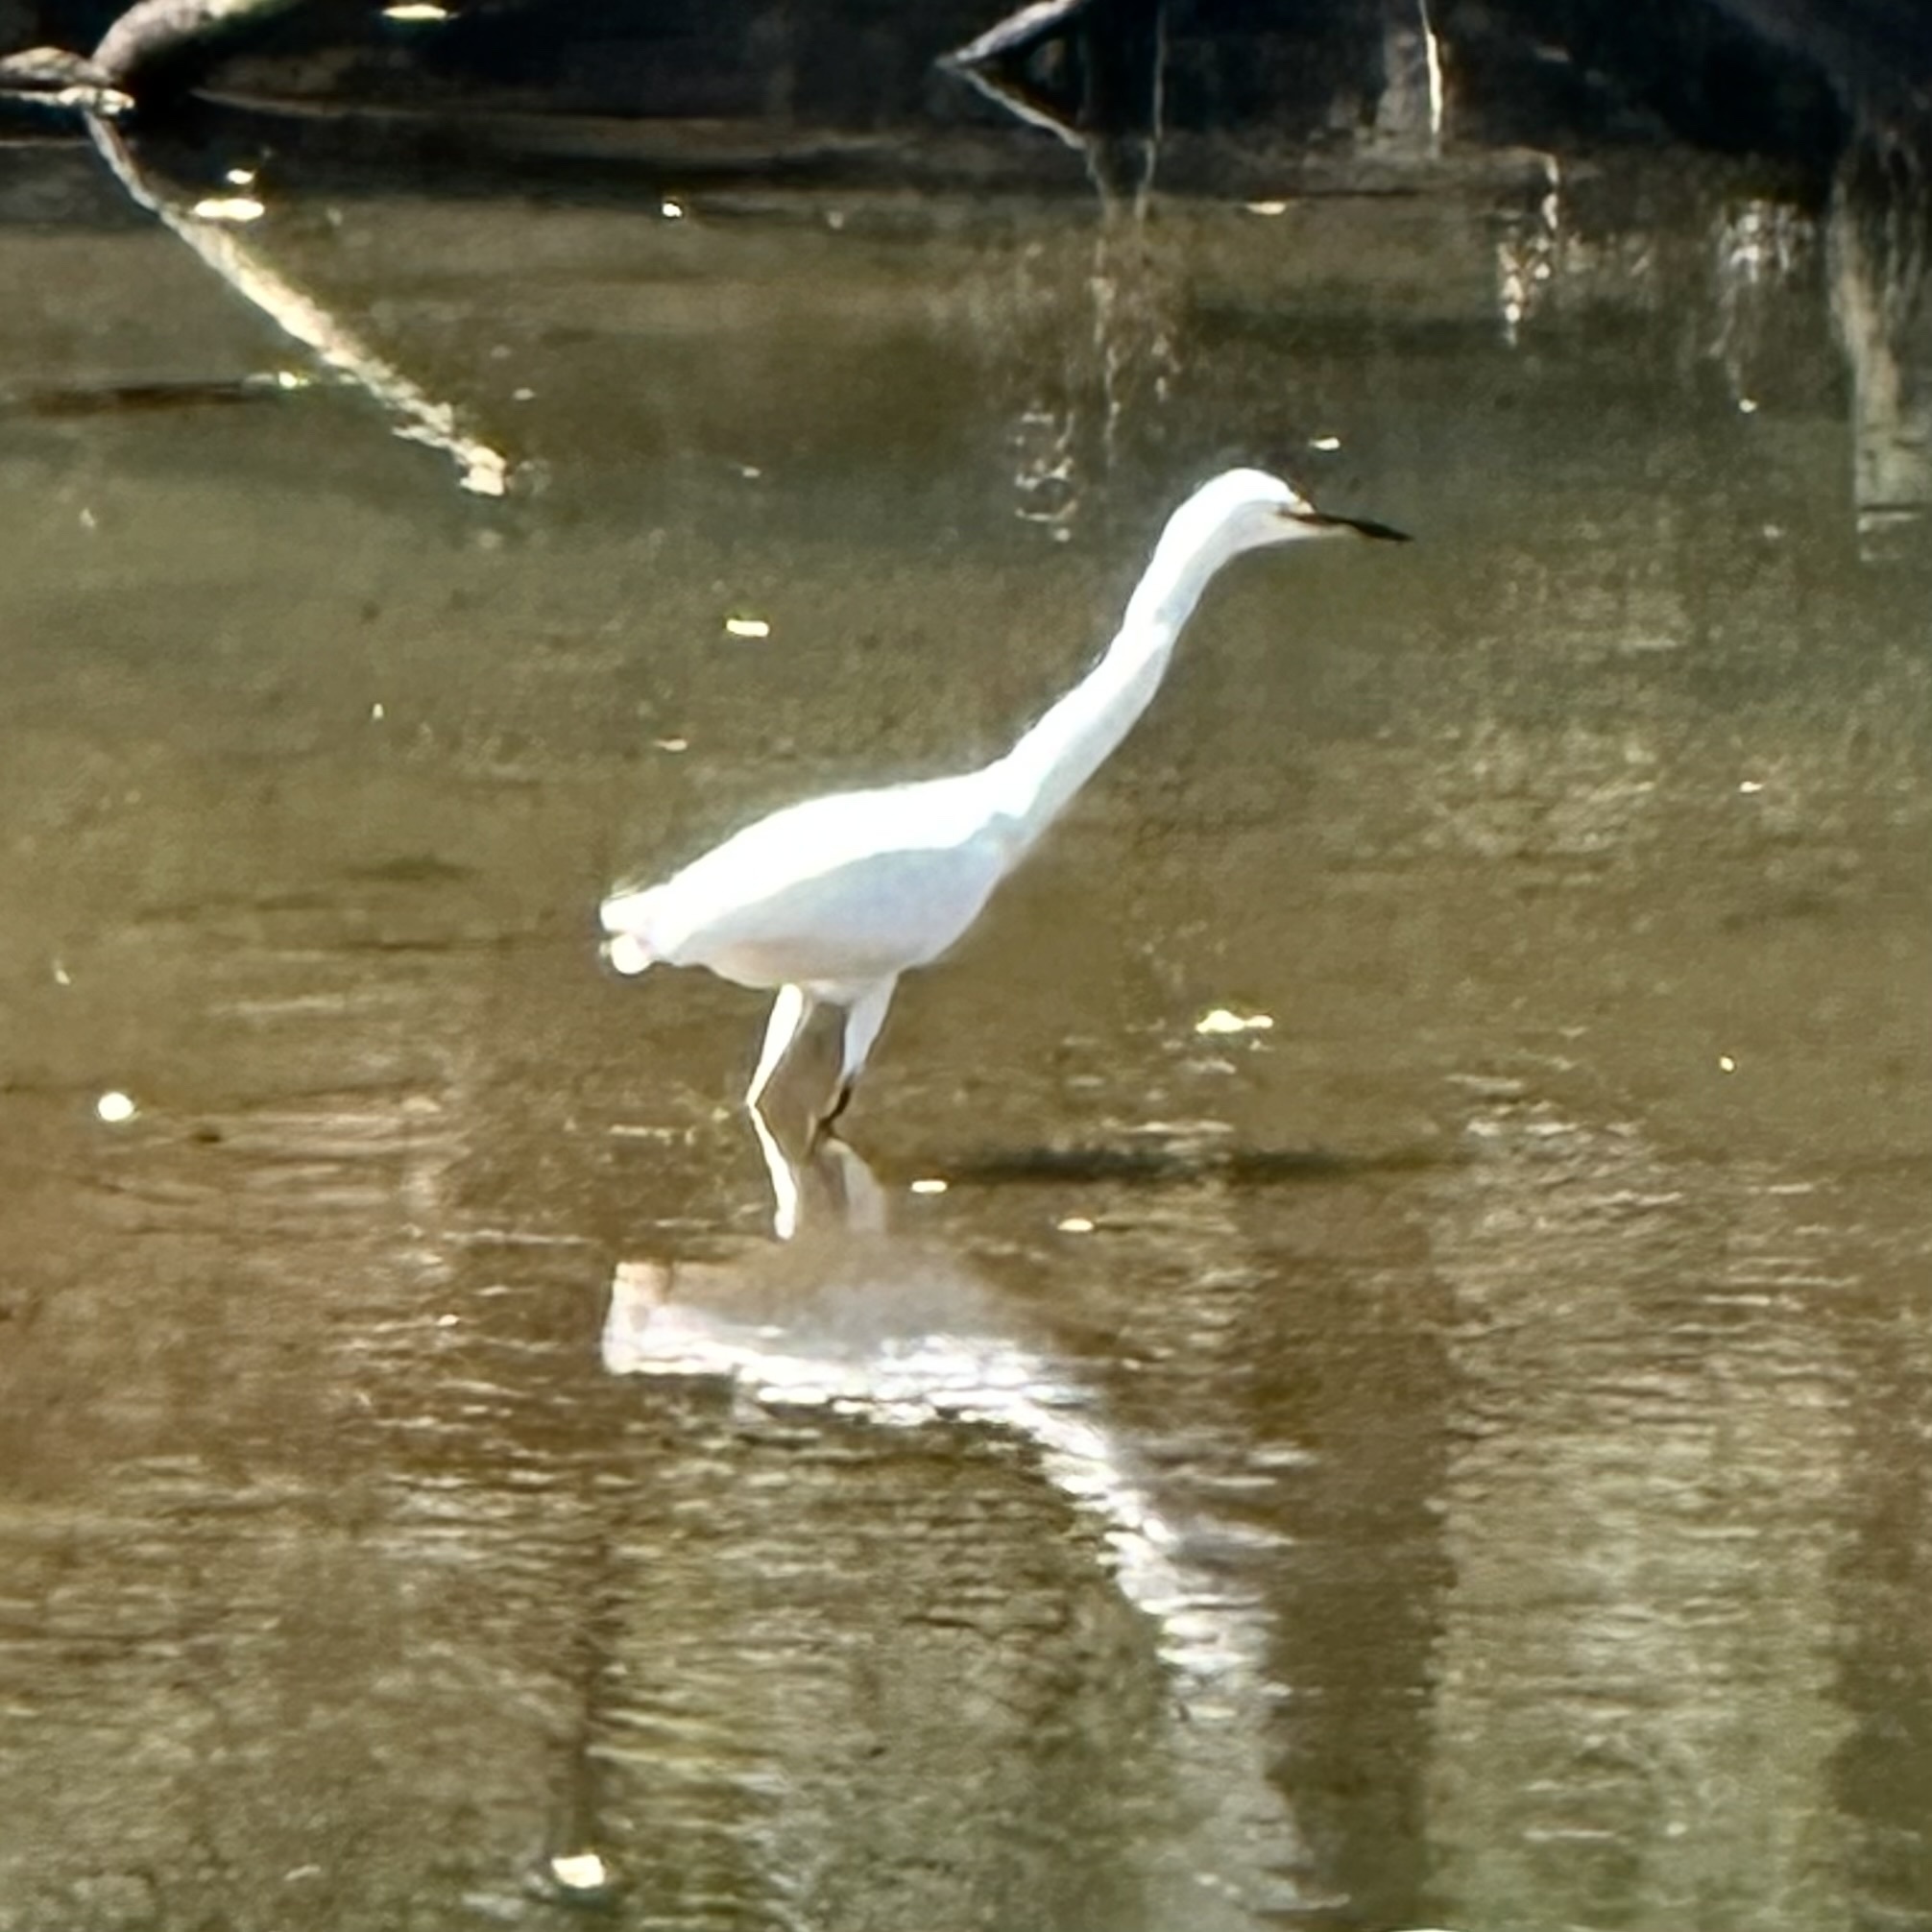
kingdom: Animalia
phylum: Chordata
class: Aves
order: Pelecaniformes
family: Ardeidae
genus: Egretta
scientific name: Egretta thula
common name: Snowy egret
